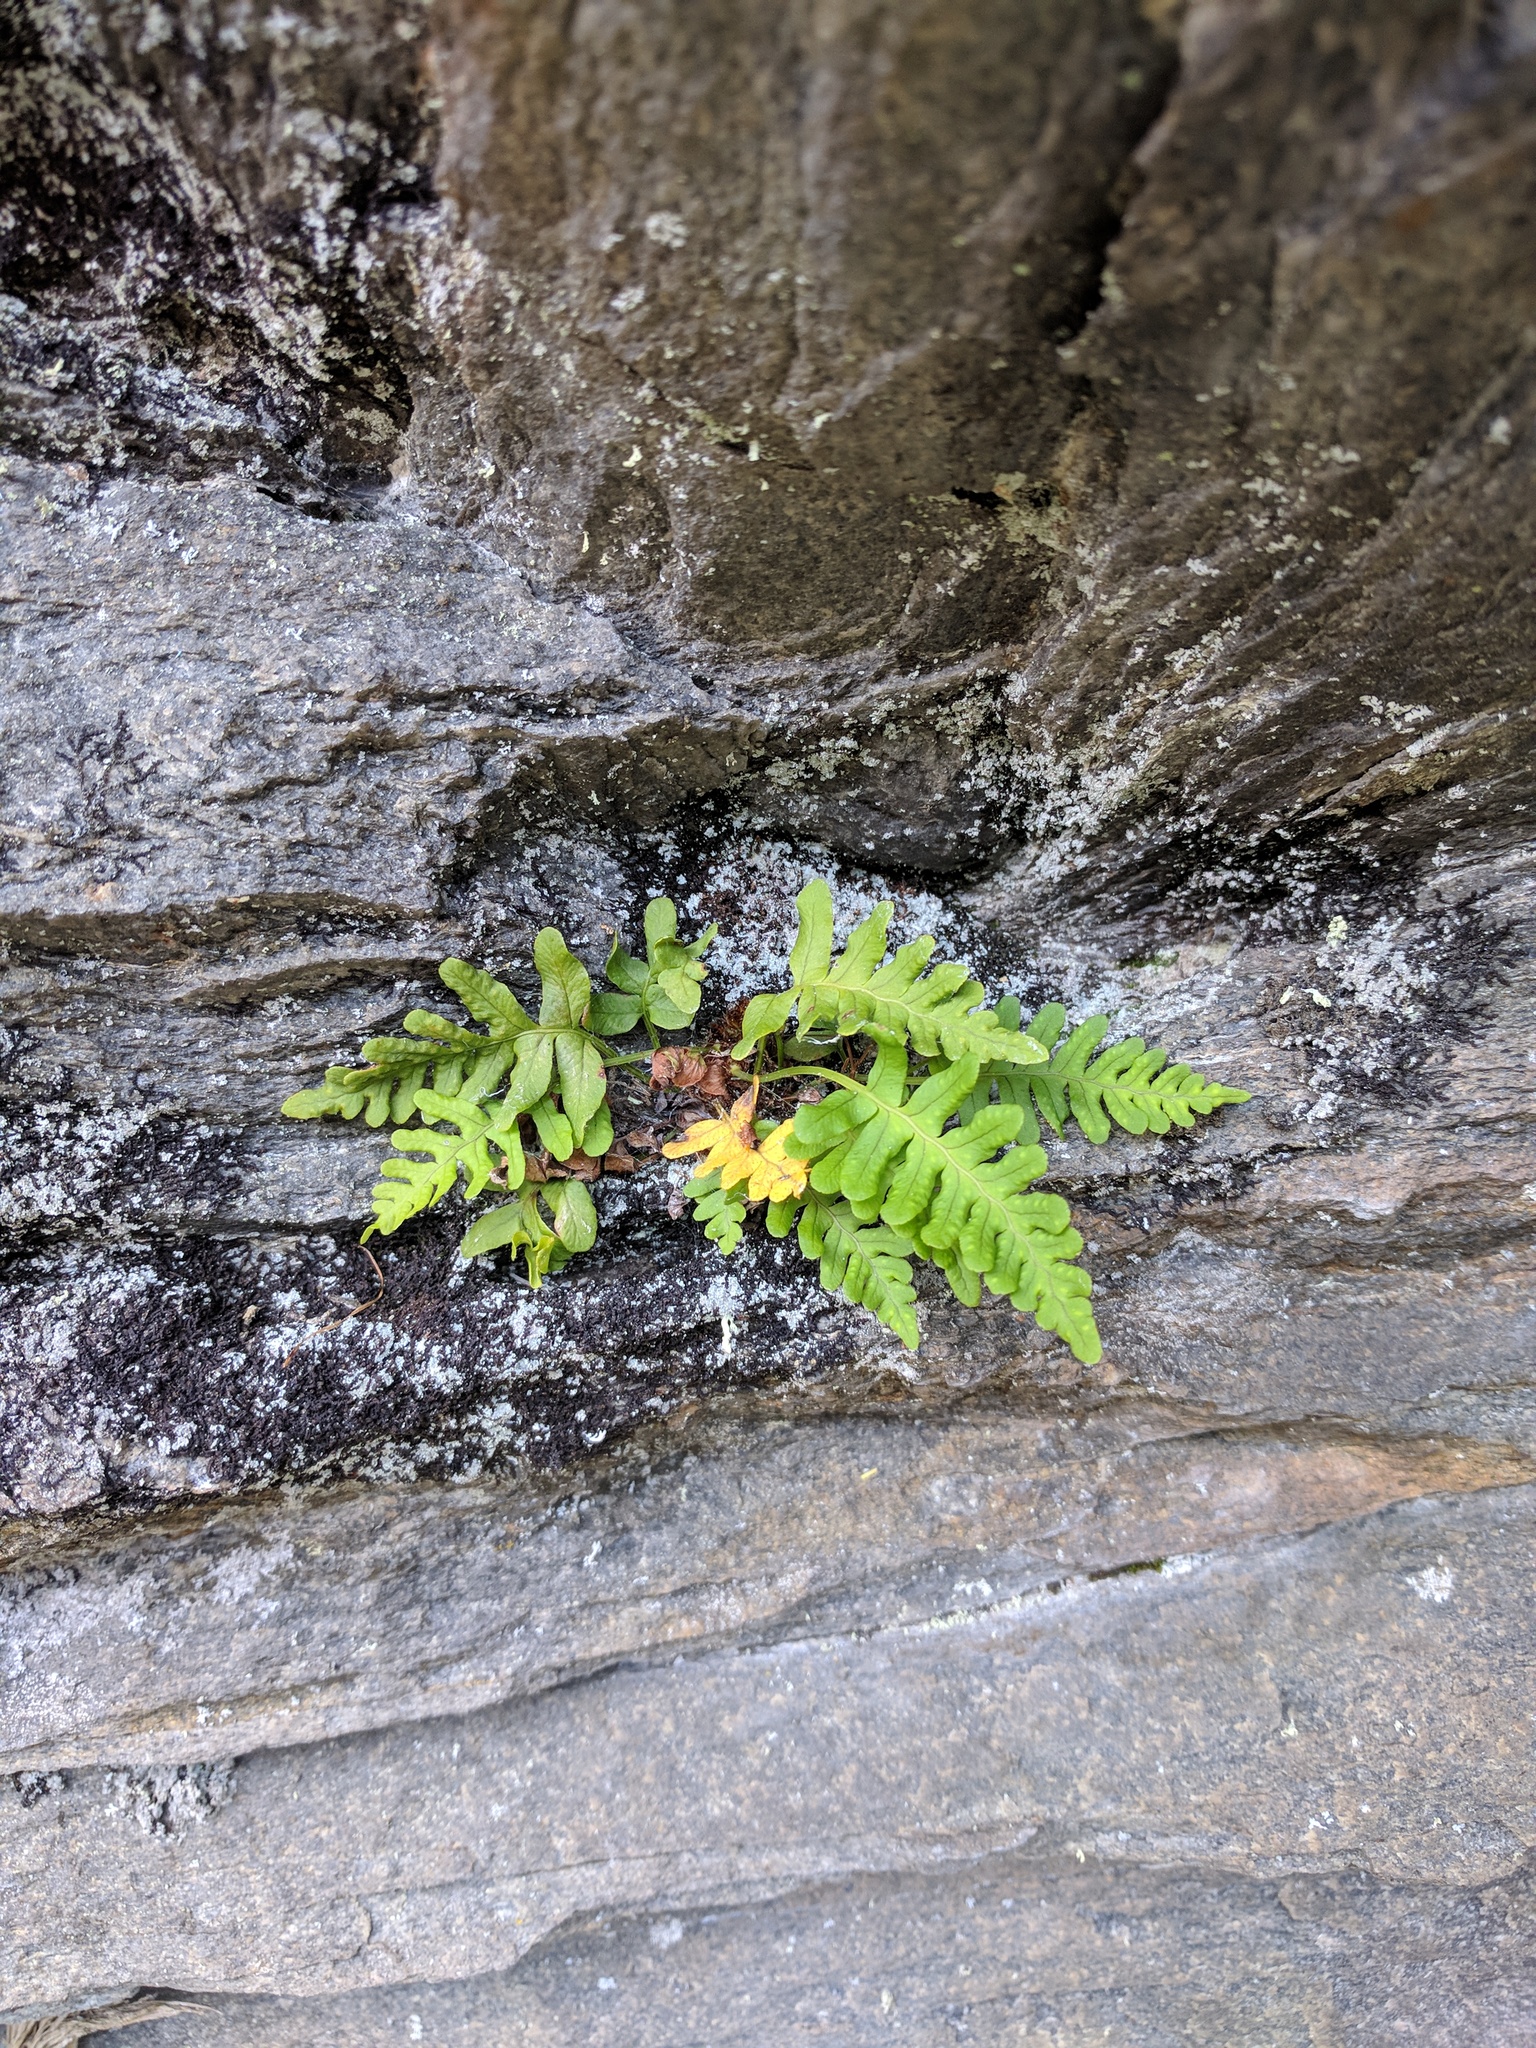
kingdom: Plantae
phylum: Tracheophyta
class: Polypodiopsida
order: Polypodiales
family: Polypodiaceae
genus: Polypodium
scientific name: Polypodium vulgare
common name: Common polypody
